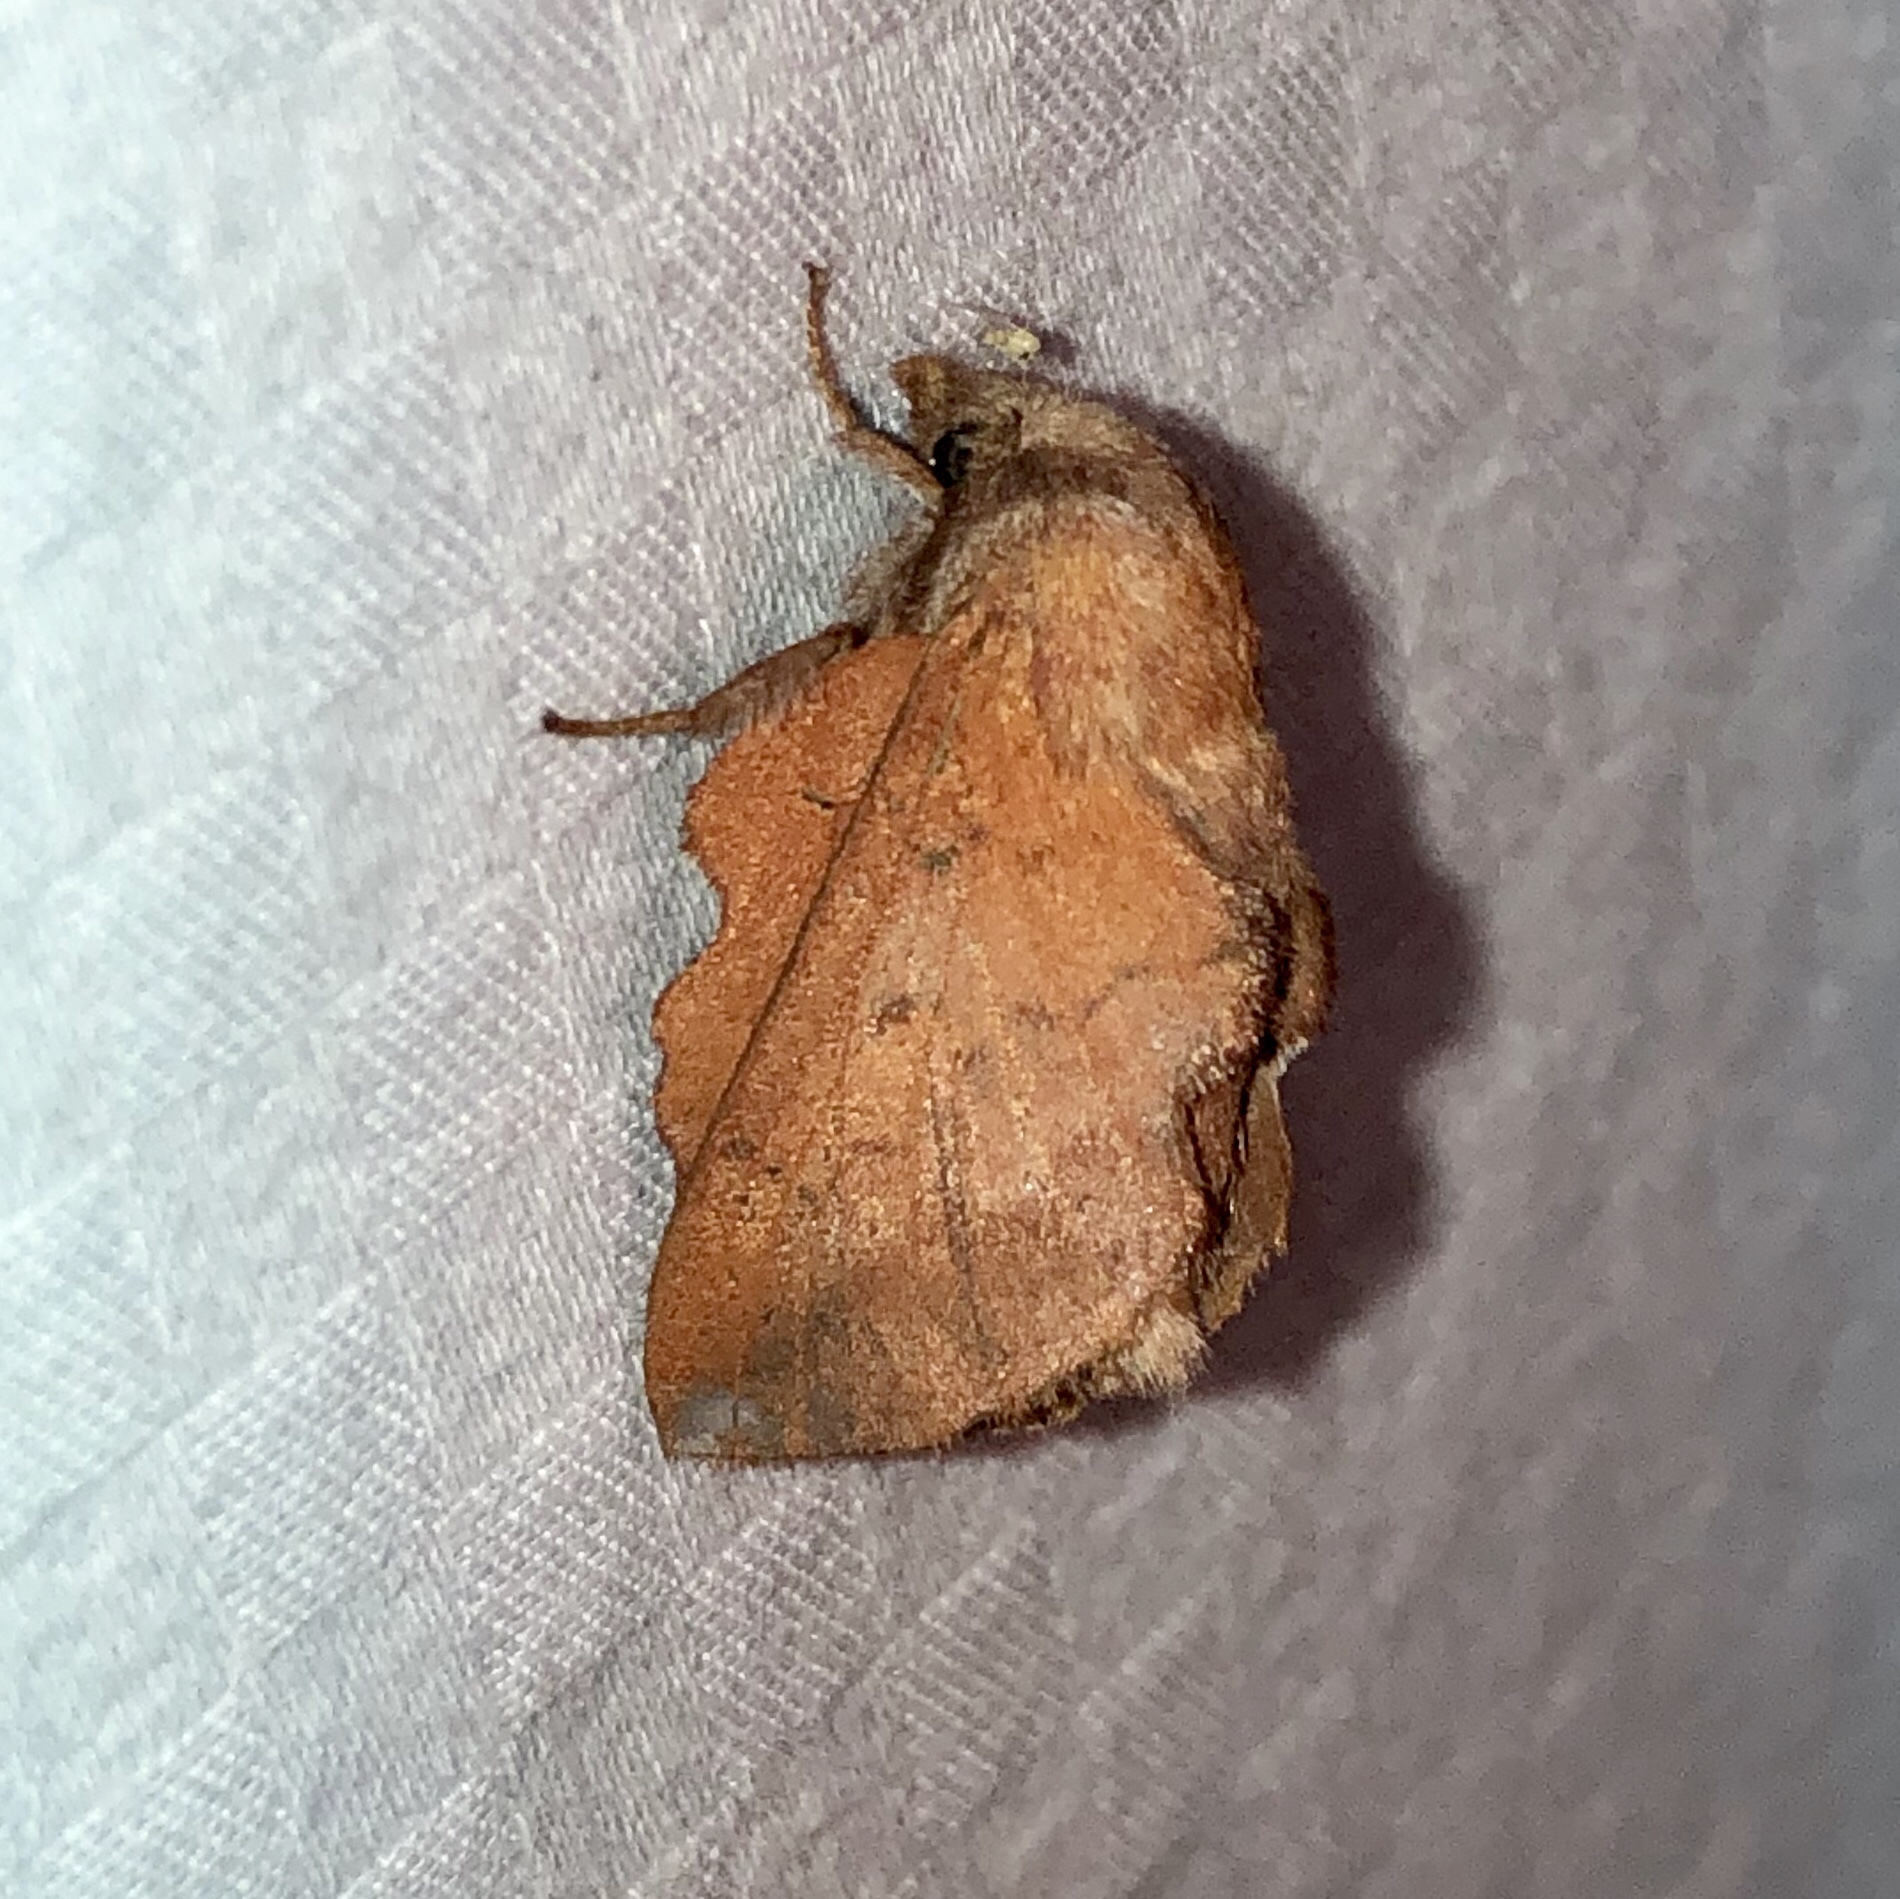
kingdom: Animalia
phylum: Arthropoda
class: Insecta
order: Lepidoptera
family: Lasiocampidae
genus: Phyllodesma
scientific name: Phyllodesma americana
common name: American lappet moth
